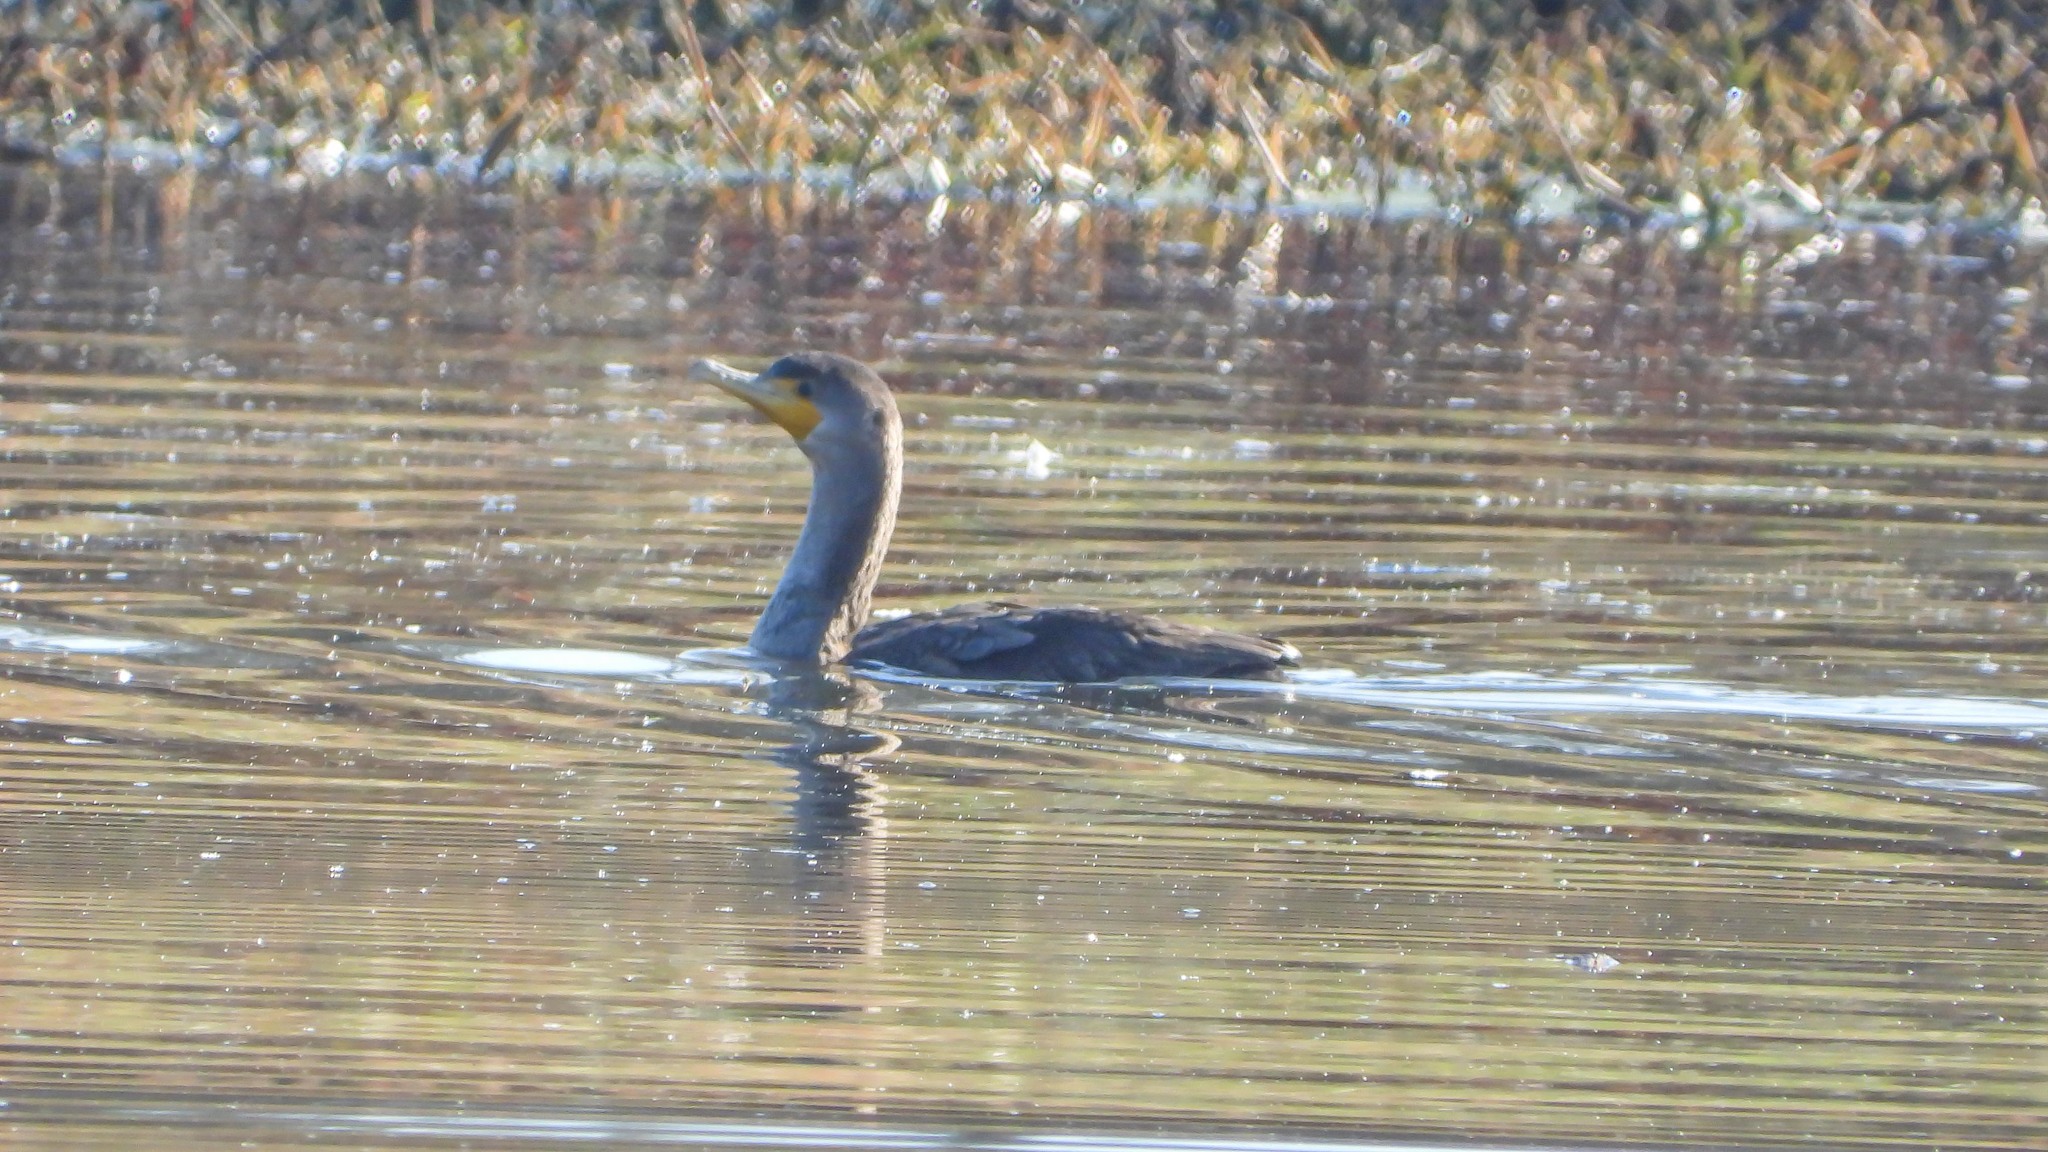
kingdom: Animalia
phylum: Chordata
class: Aves
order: Suliformes
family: Phalacrocoracidae
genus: Phalacrocorax
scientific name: Phalacrocorax auritus
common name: Double-crested cormorant
